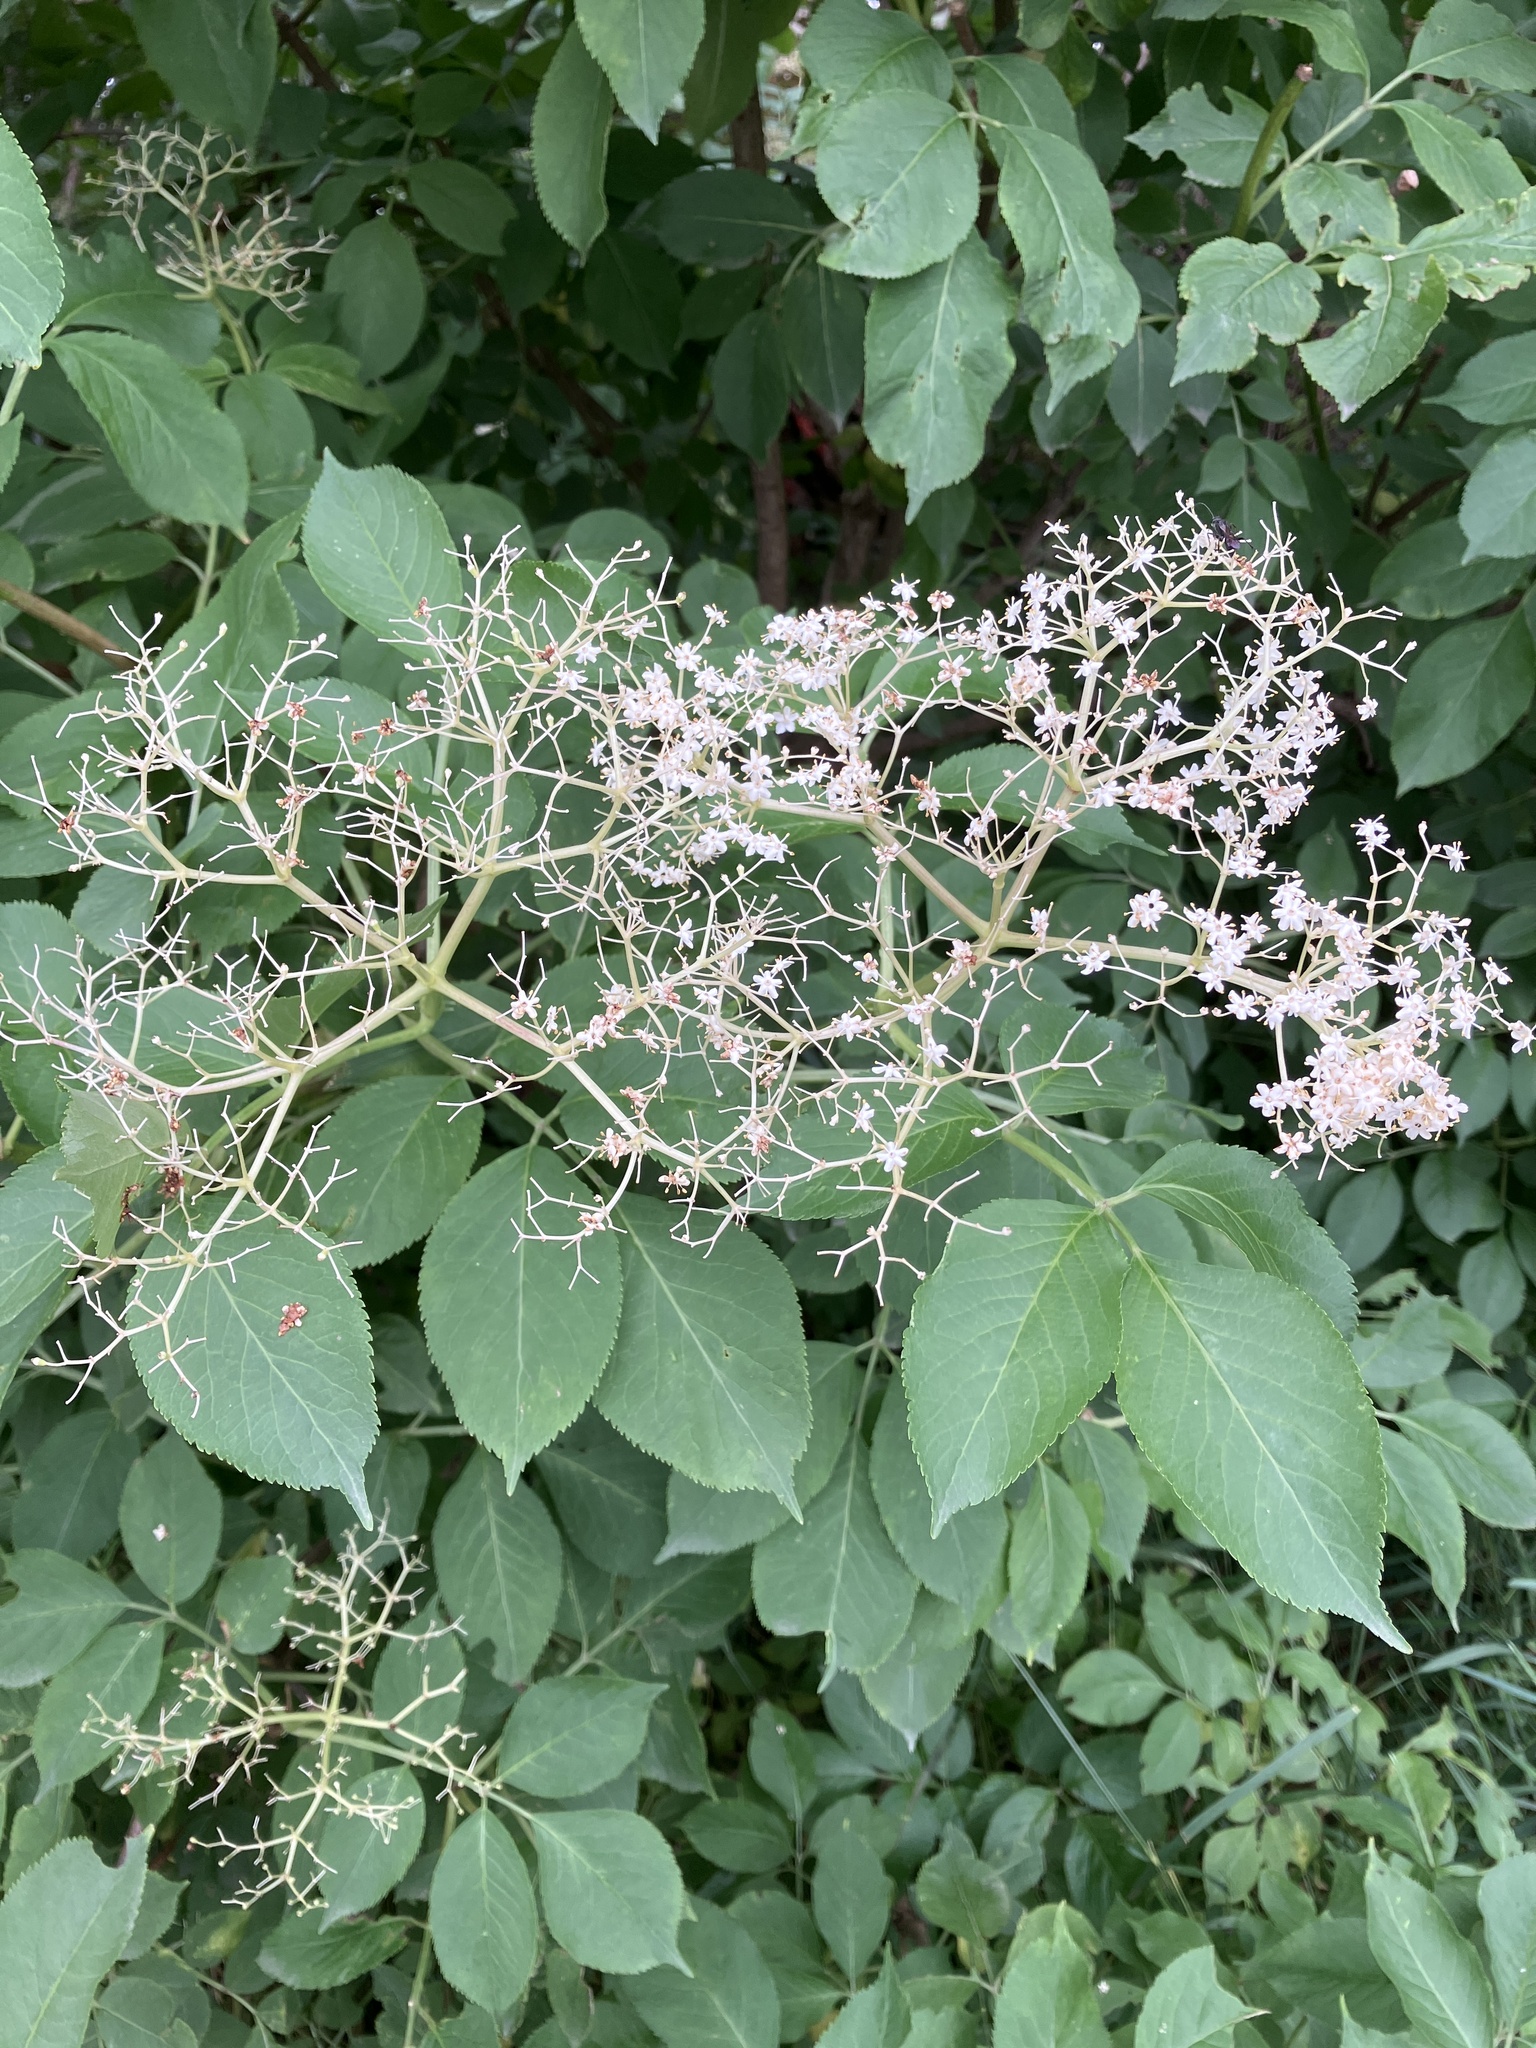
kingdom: Plantae
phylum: Tracheophyta
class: Magnoliopsida
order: Dipsacales
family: Viburnaceae
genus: Sambucus
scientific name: Sambucus nigra
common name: Elder
